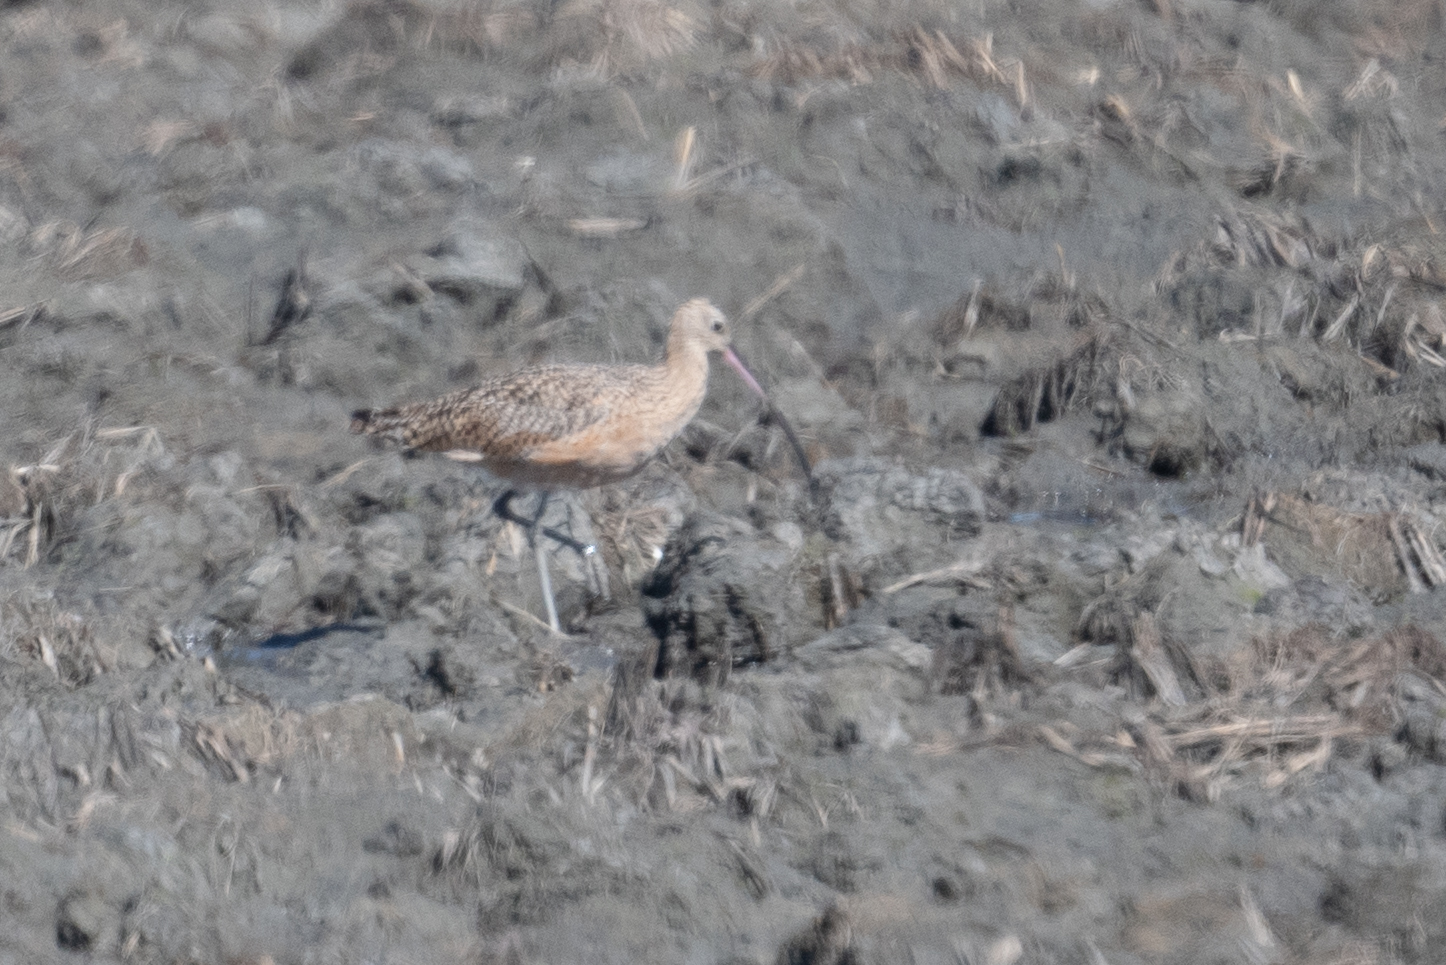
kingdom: Animalia
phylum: Chordata
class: Aves
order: Charadriiformes
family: Scolopacidae
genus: Numenius
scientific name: Numenius americanus
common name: Long-billed curlew
